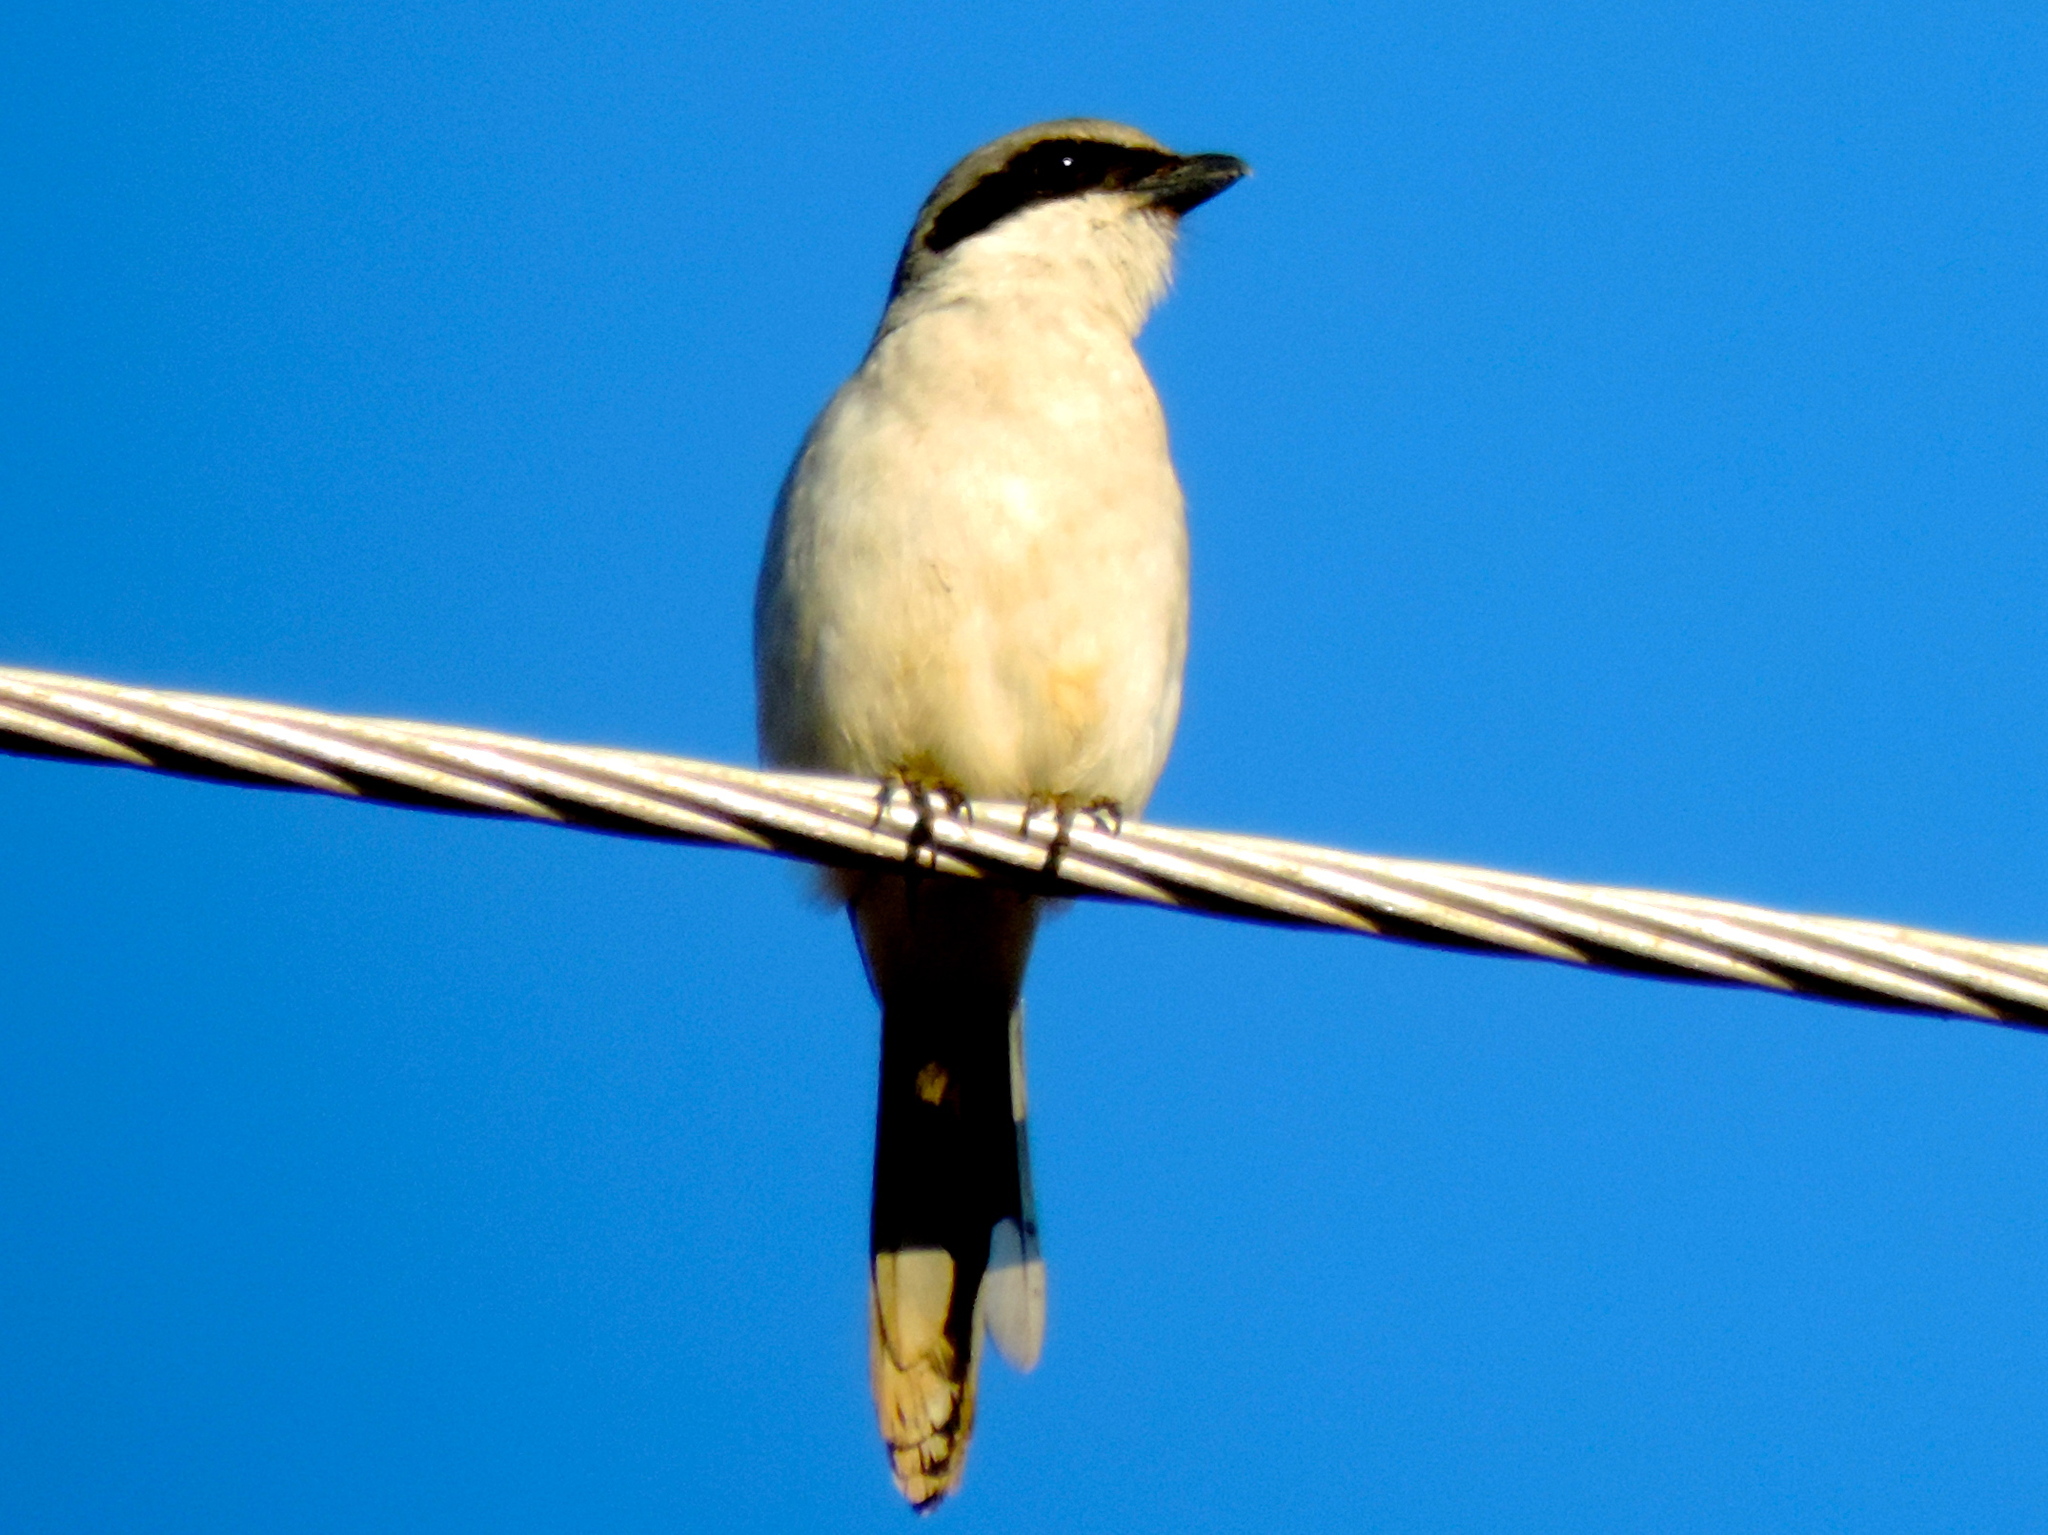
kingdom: Animalia
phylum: Chordata
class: Aves
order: Passeriformes
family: Laniidae
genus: Lanius
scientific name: Lanius ludovicianus
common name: Loggerhead shrike
